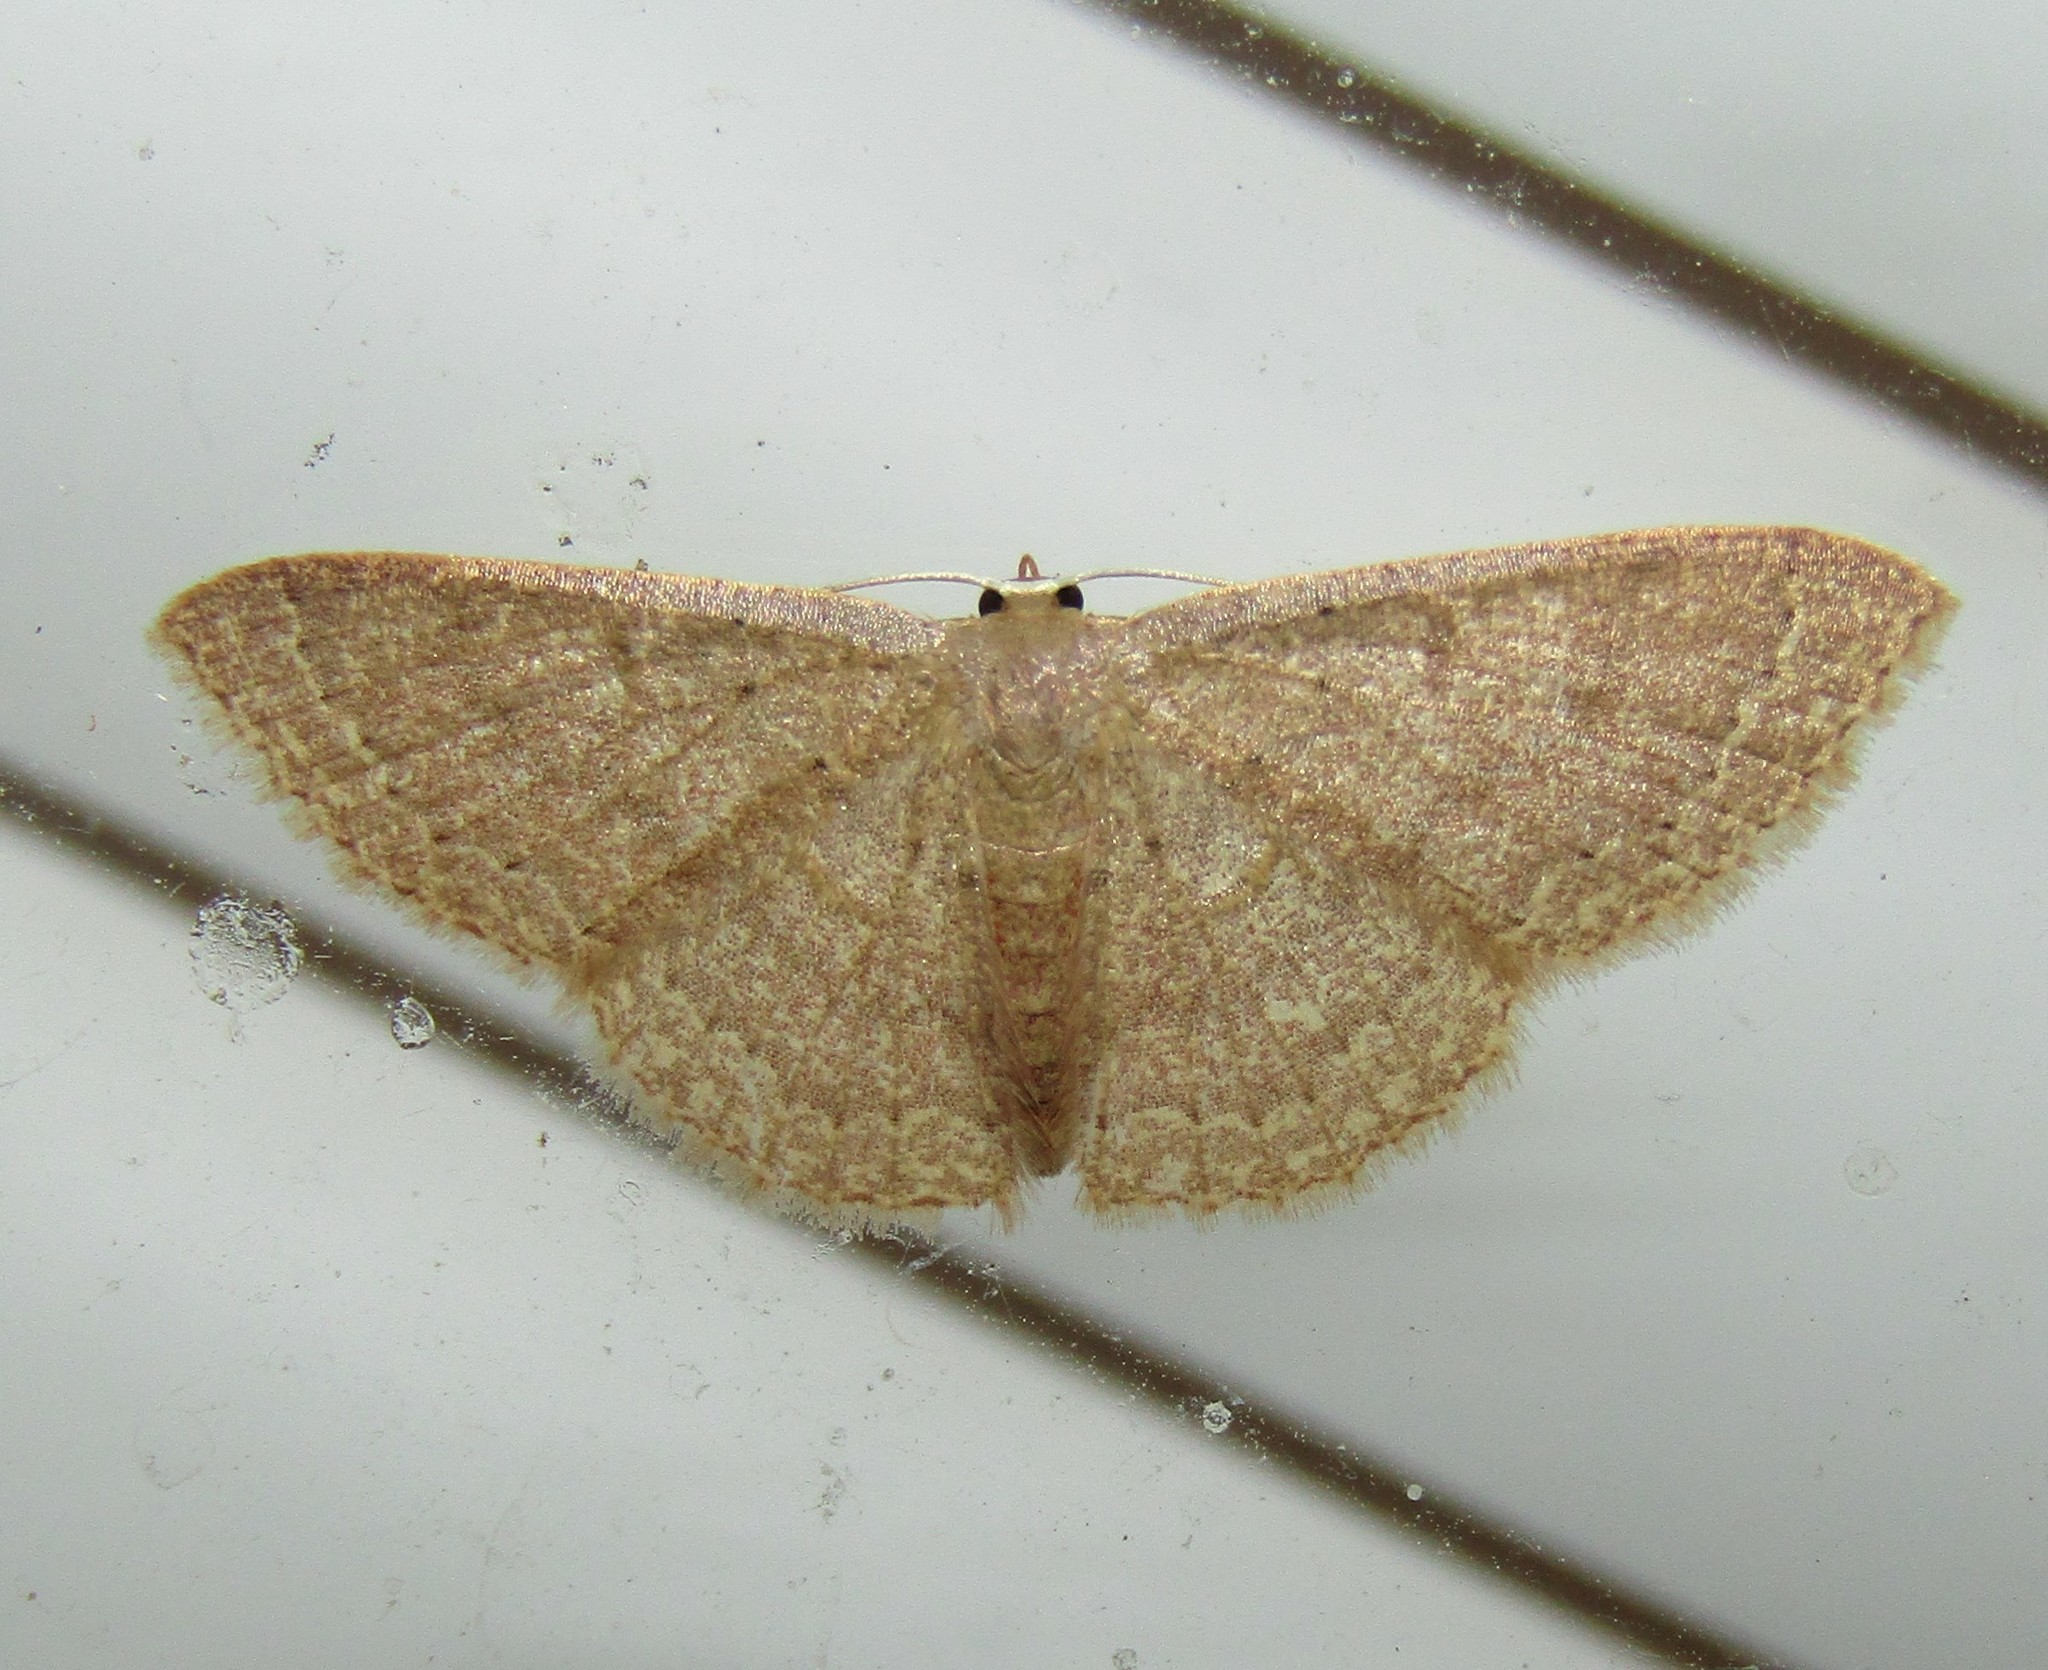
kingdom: Animalia
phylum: Arthropoda
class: Insecta
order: Lepidoptera
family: Geometridae
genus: Pleuroprucha
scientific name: Pleuroprucha insulsaria
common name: Common tan wave
